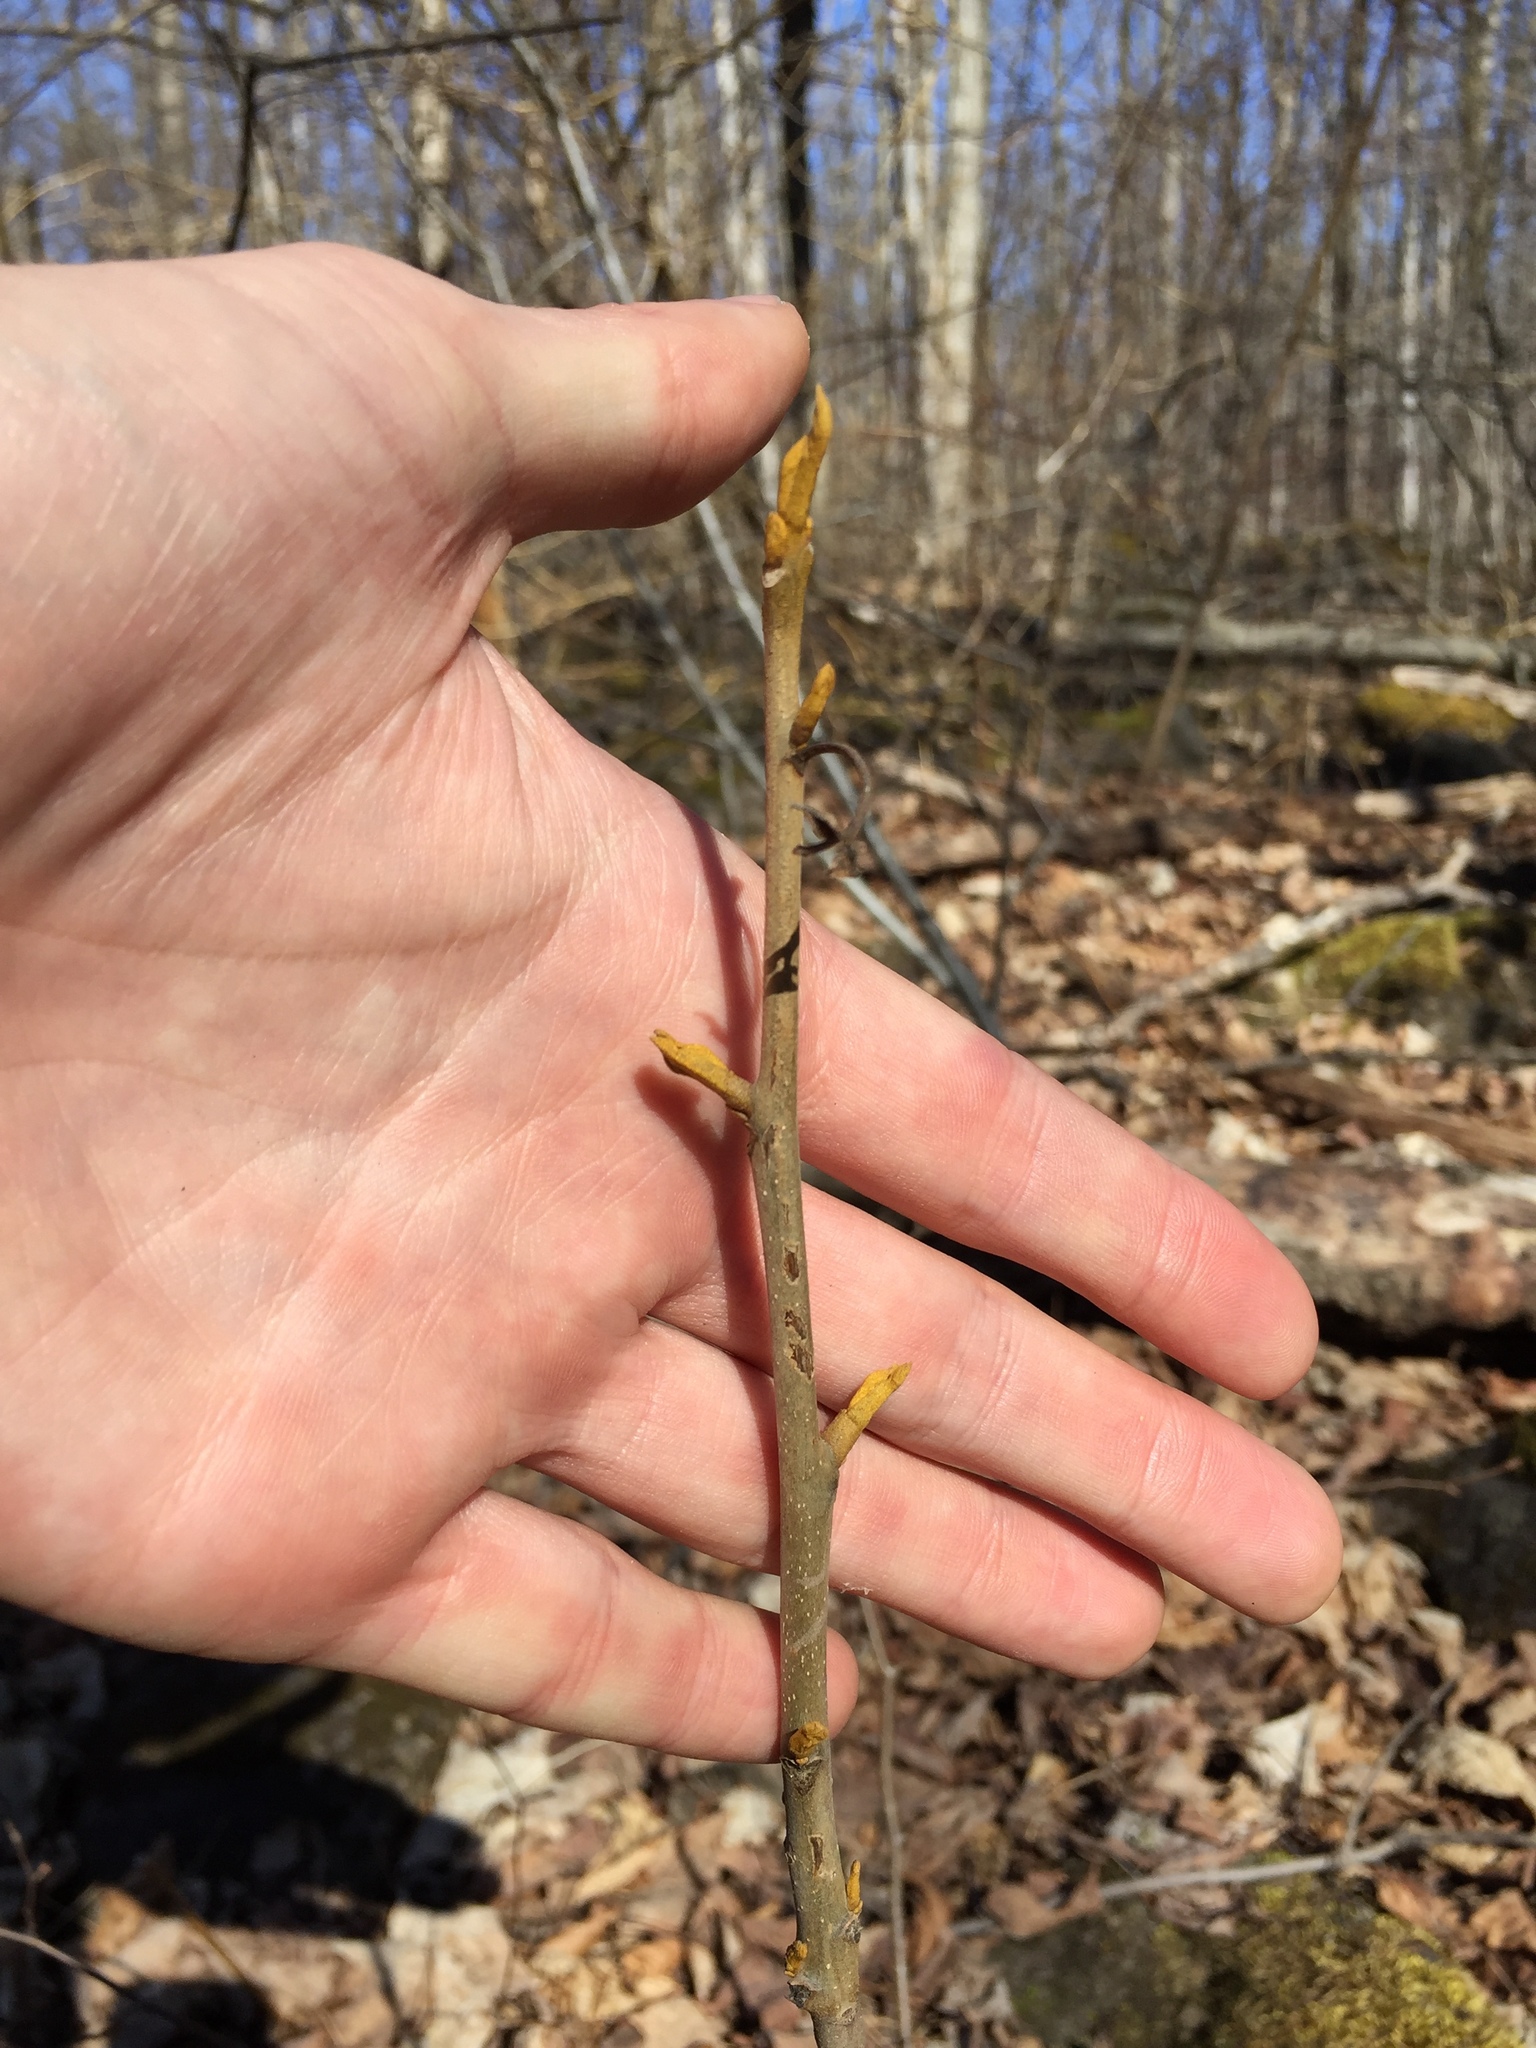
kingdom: Plantae
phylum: Tracheophyta
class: Magnoliopsida
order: Fagales
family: Juglandaceae
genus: Carya
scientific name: Carya cordiformis
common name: Bitternut hickory
